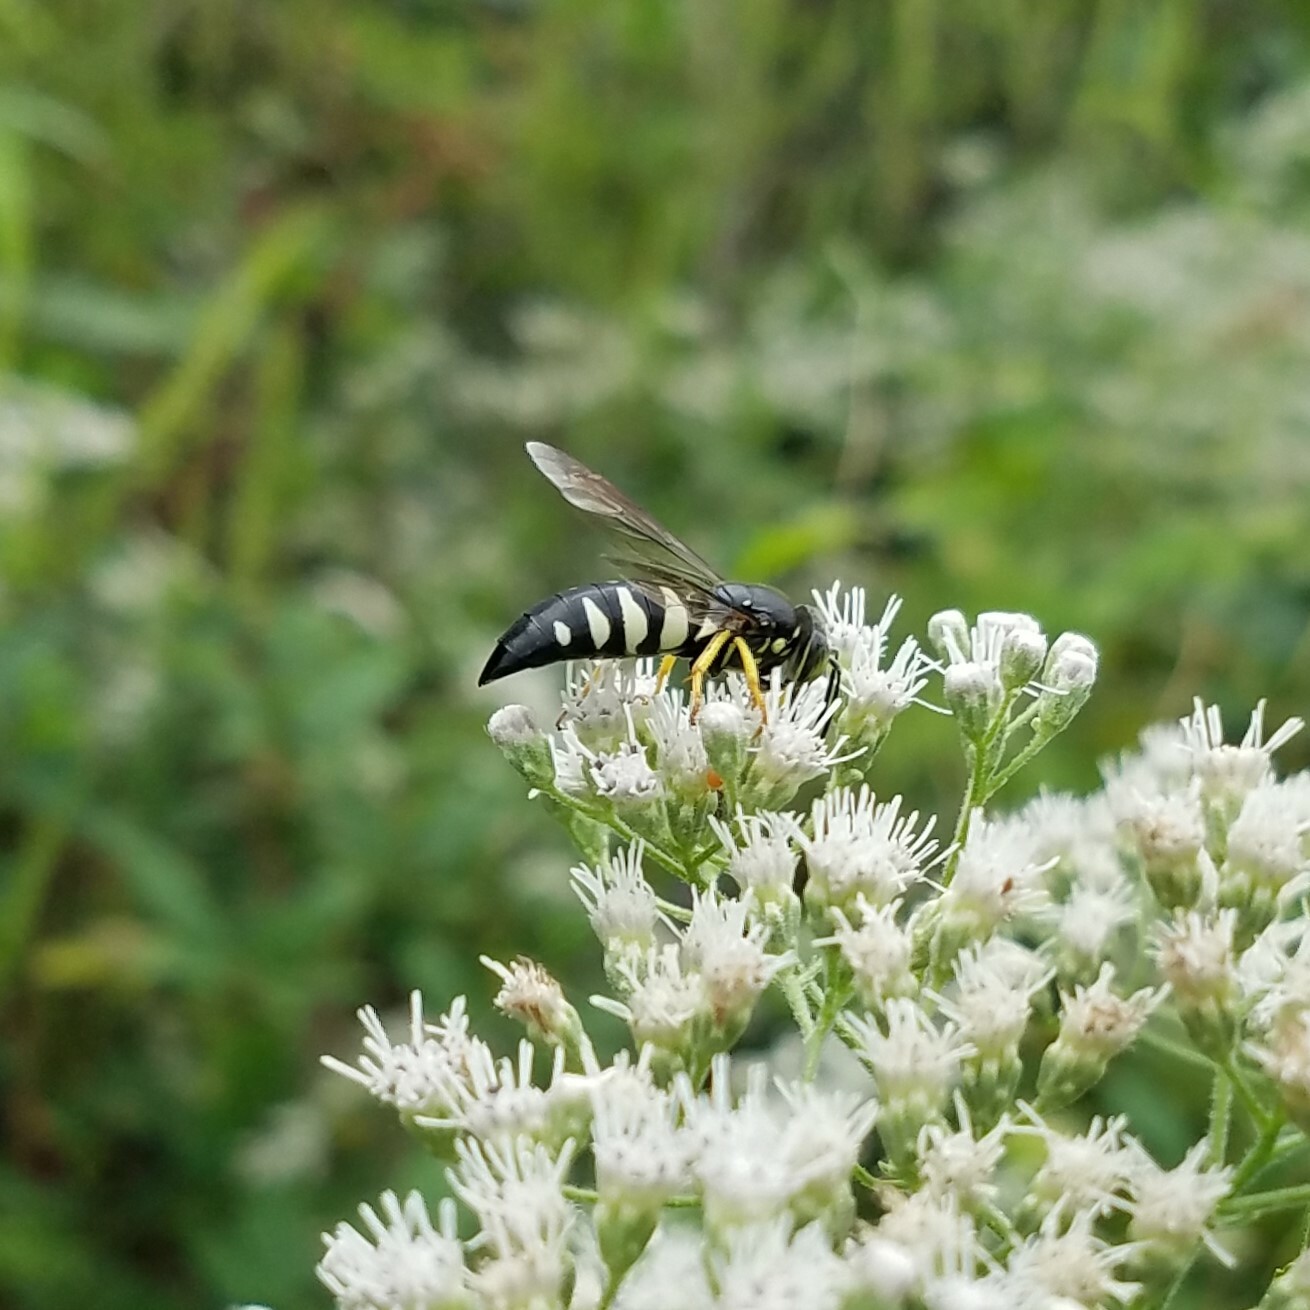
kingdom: Animalia
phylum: Arthropoda
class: Insecta
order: Hymenoptera
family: Crabronidae
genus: Bicyrtes
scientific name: Bicyrtes quadrifasciatus
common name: Four-banded stink bug hunter wasp
